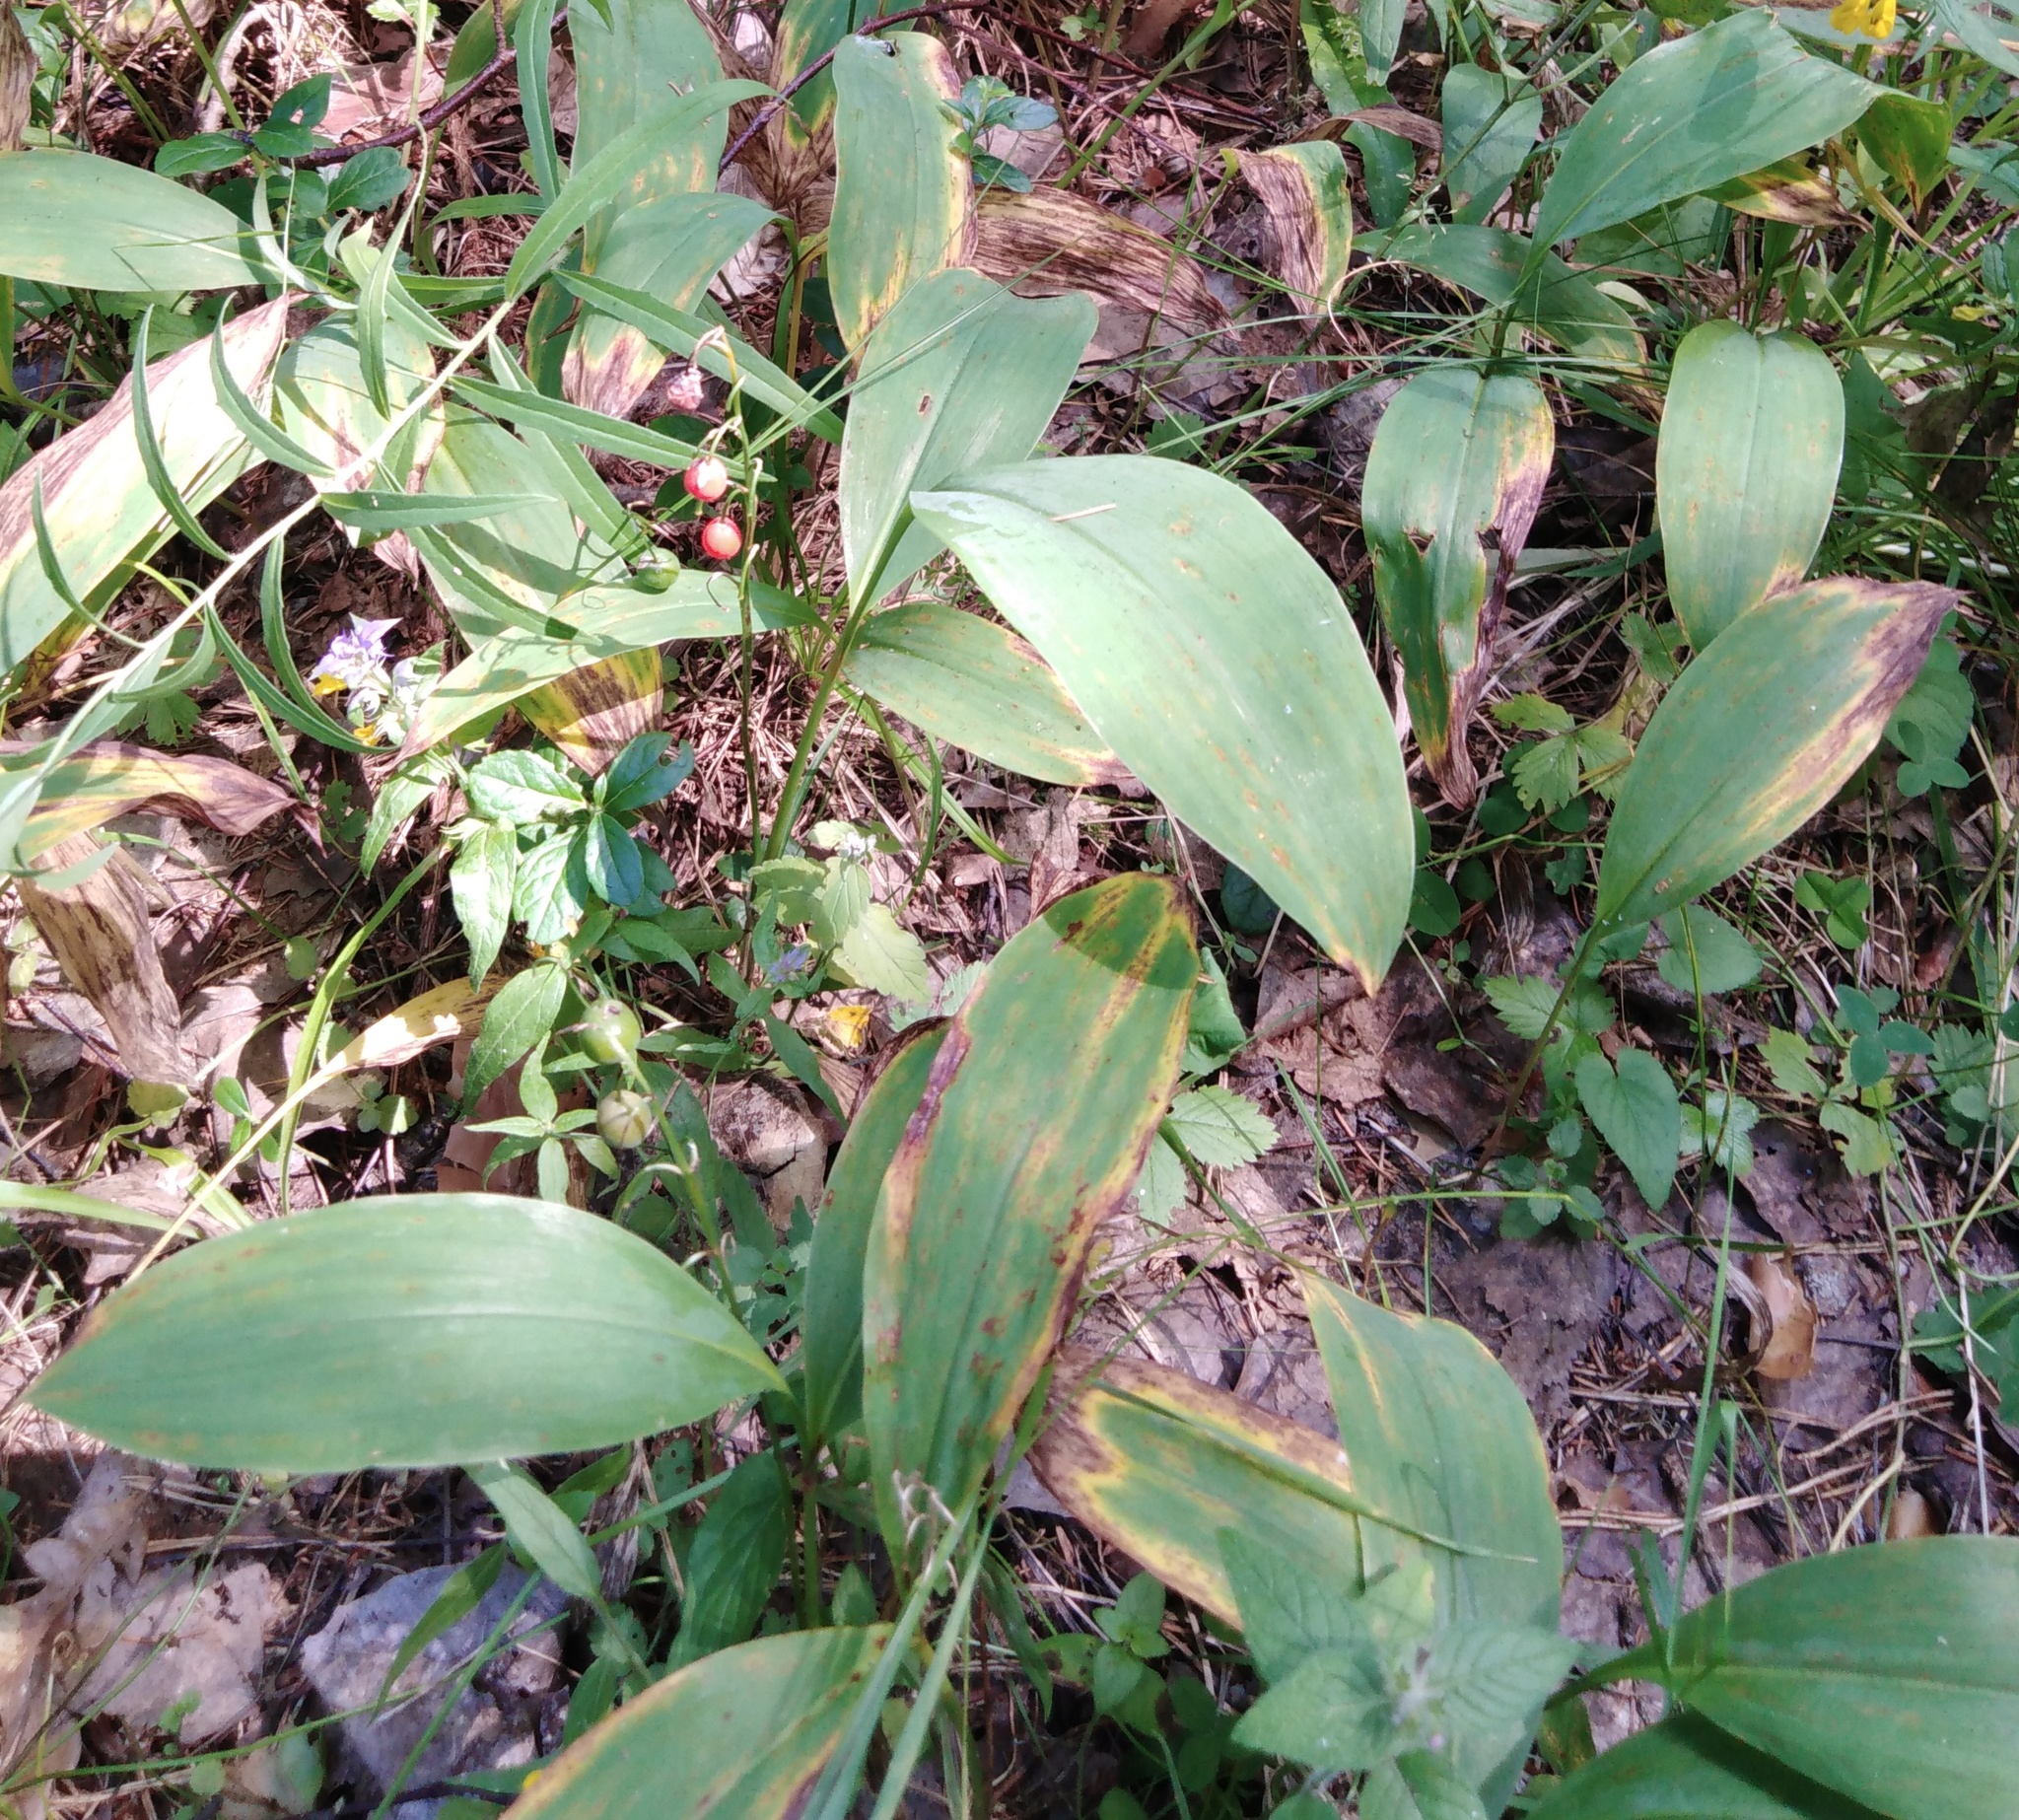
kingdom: Plantae
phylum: Tracheophyta
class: Liliopsida
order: Asparagales
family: Asparagaceae
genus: Convallaria
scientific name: Convallaria majalis
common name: Lily-of-the-valley
